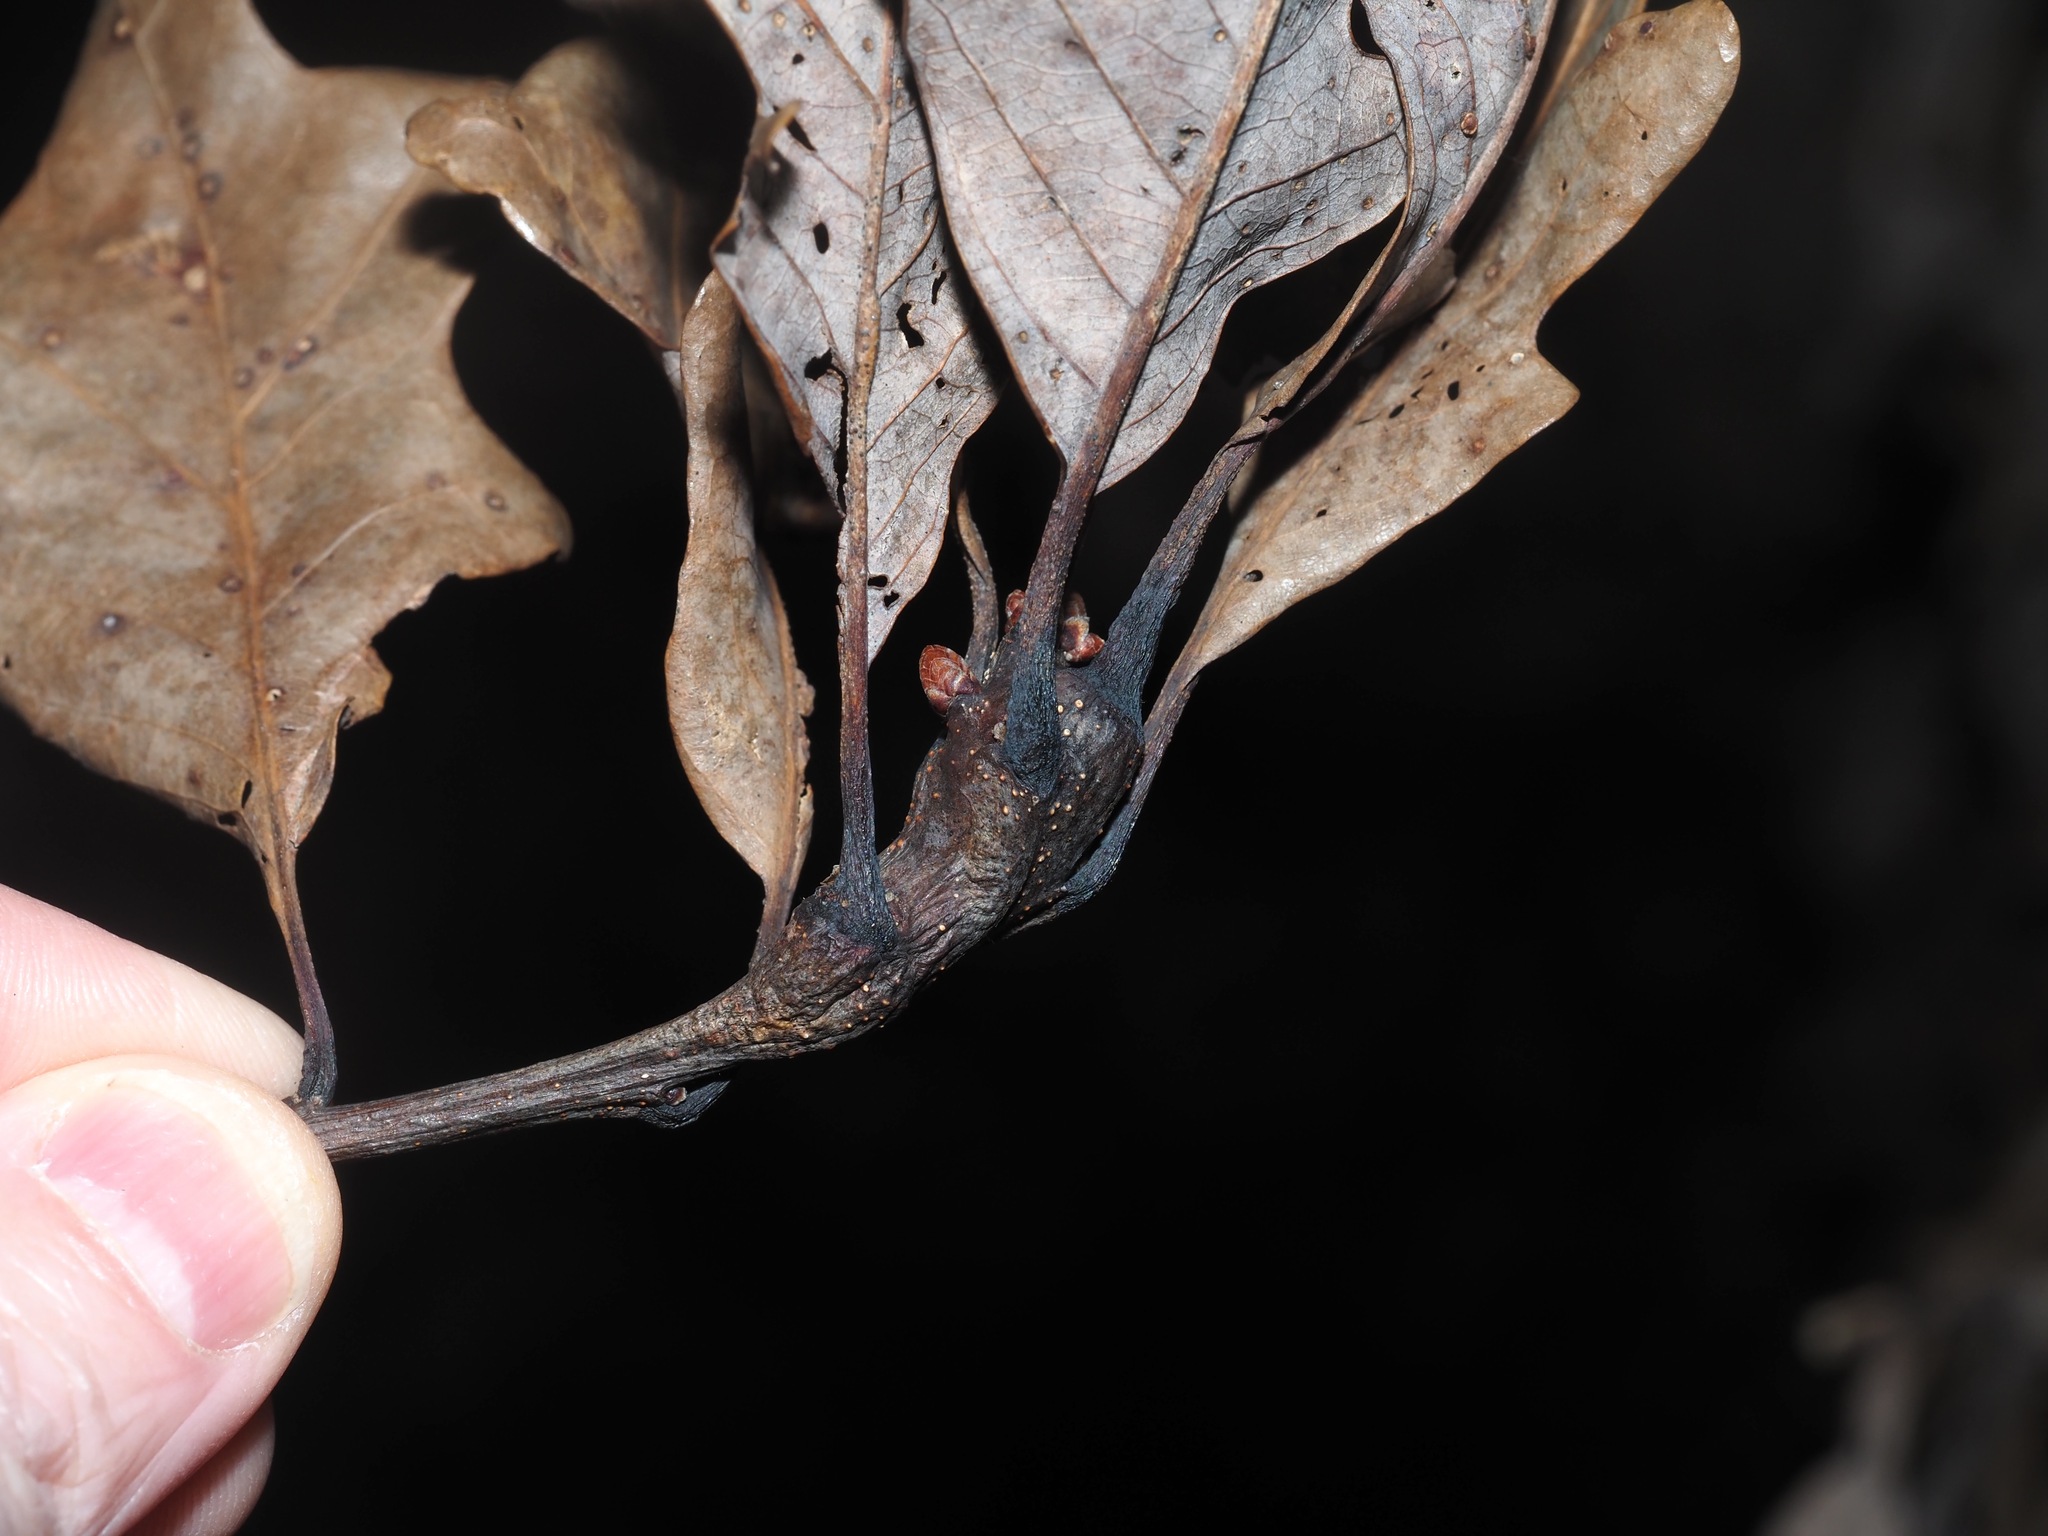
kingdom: Animalia
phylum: Arthropoda
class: Insecta
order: Hymenoptera
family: Cynipidae
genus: Neuroterus
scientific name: Neuroterus quercusbaccarum
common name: Common spangle gall
